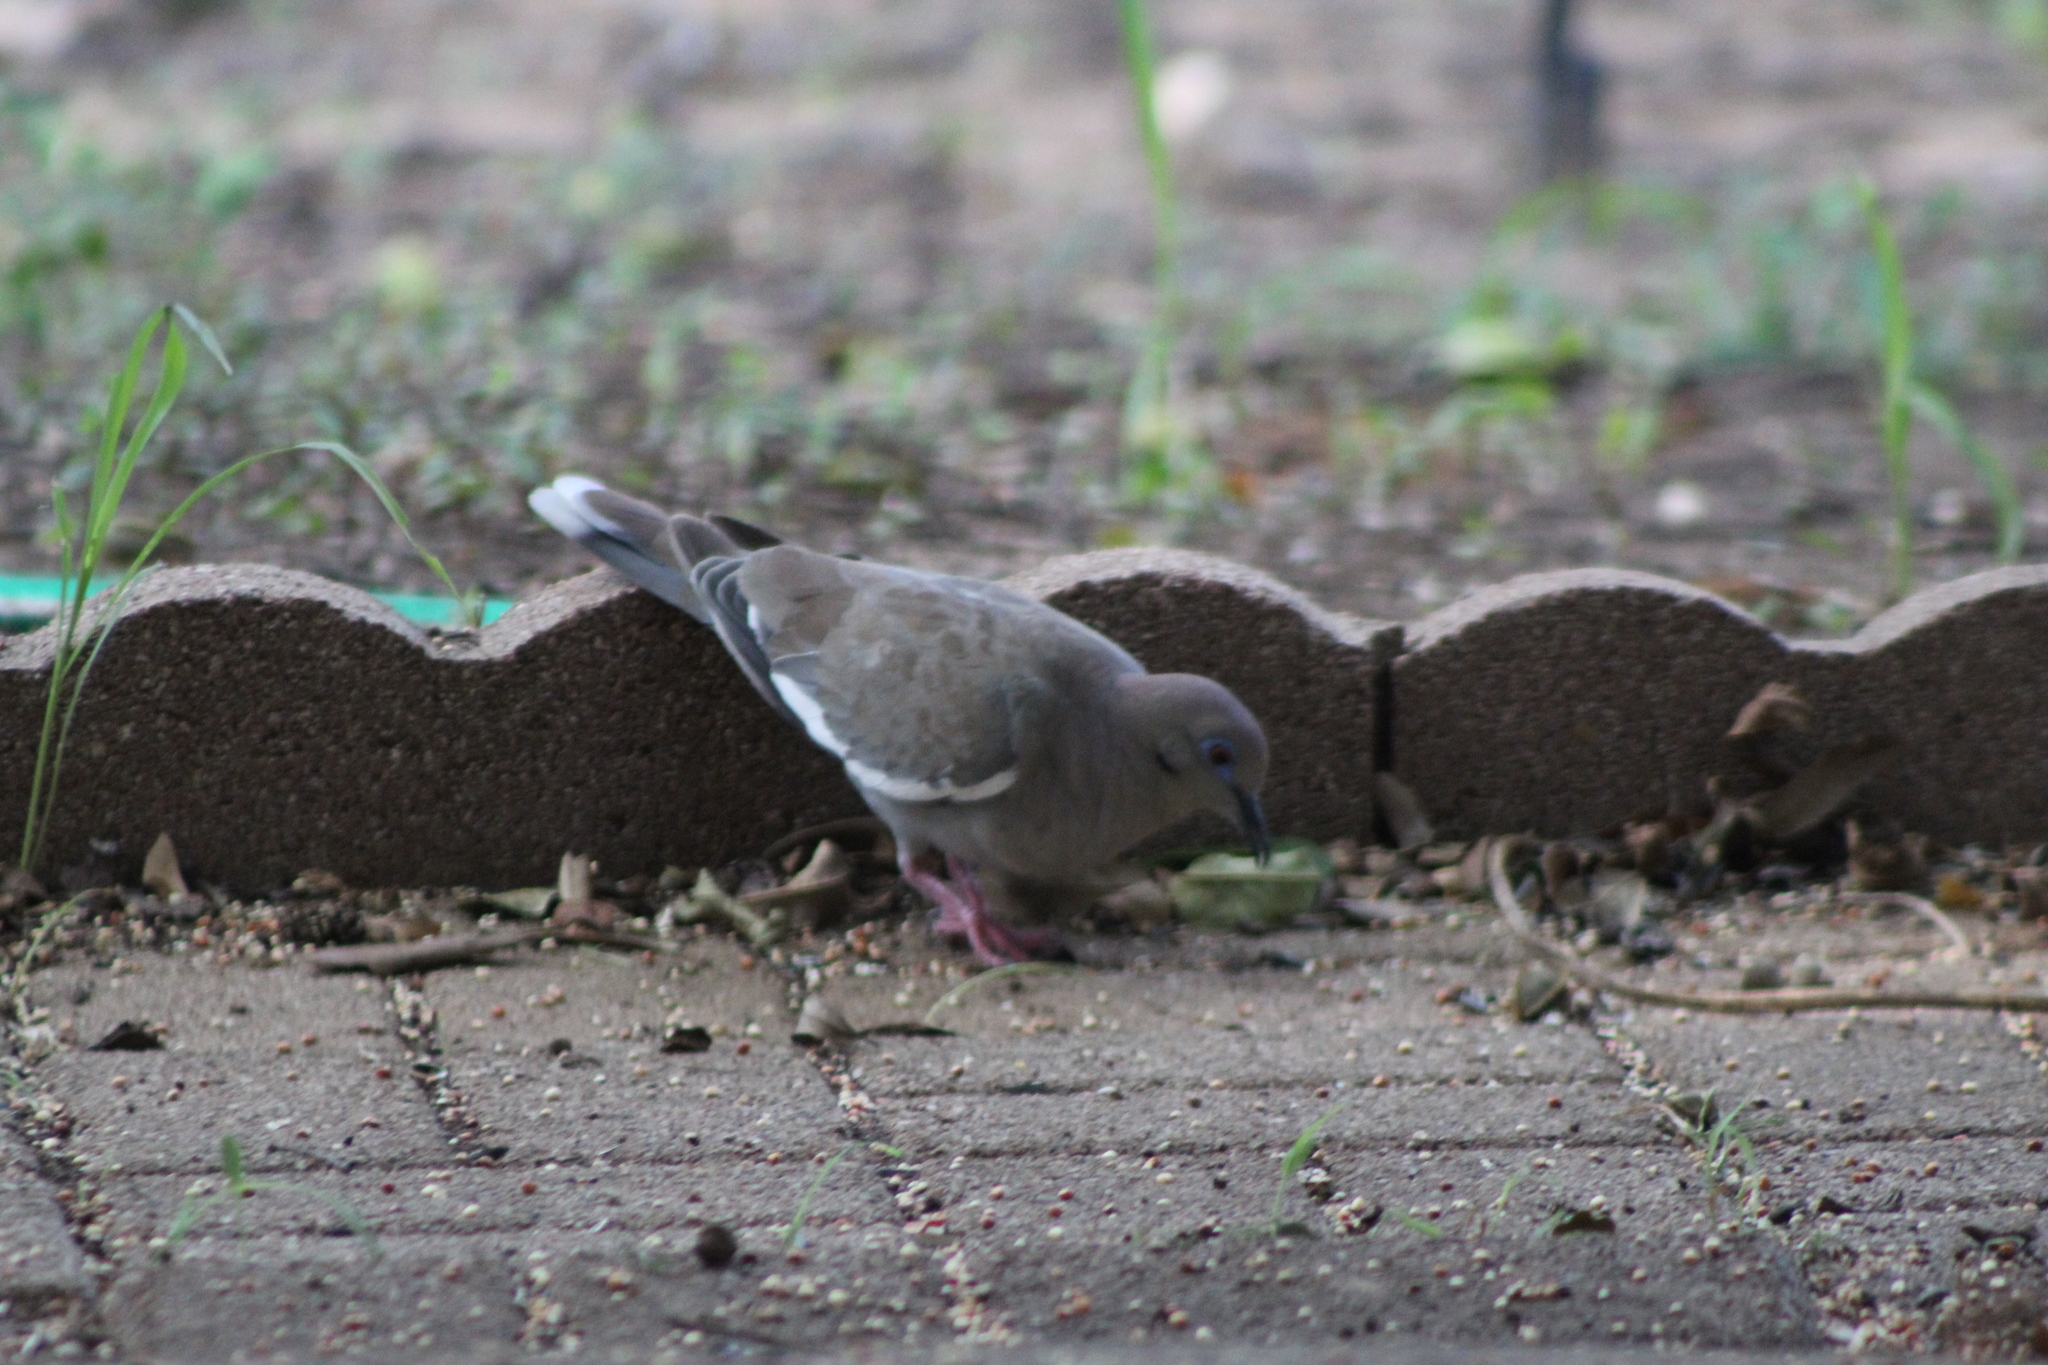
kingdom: Animalia
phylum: Chordata
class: Aves
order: Columbiformes
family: Columbidae
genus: Zenaida
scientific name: Zenaida asiatica
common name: White-winged dove
